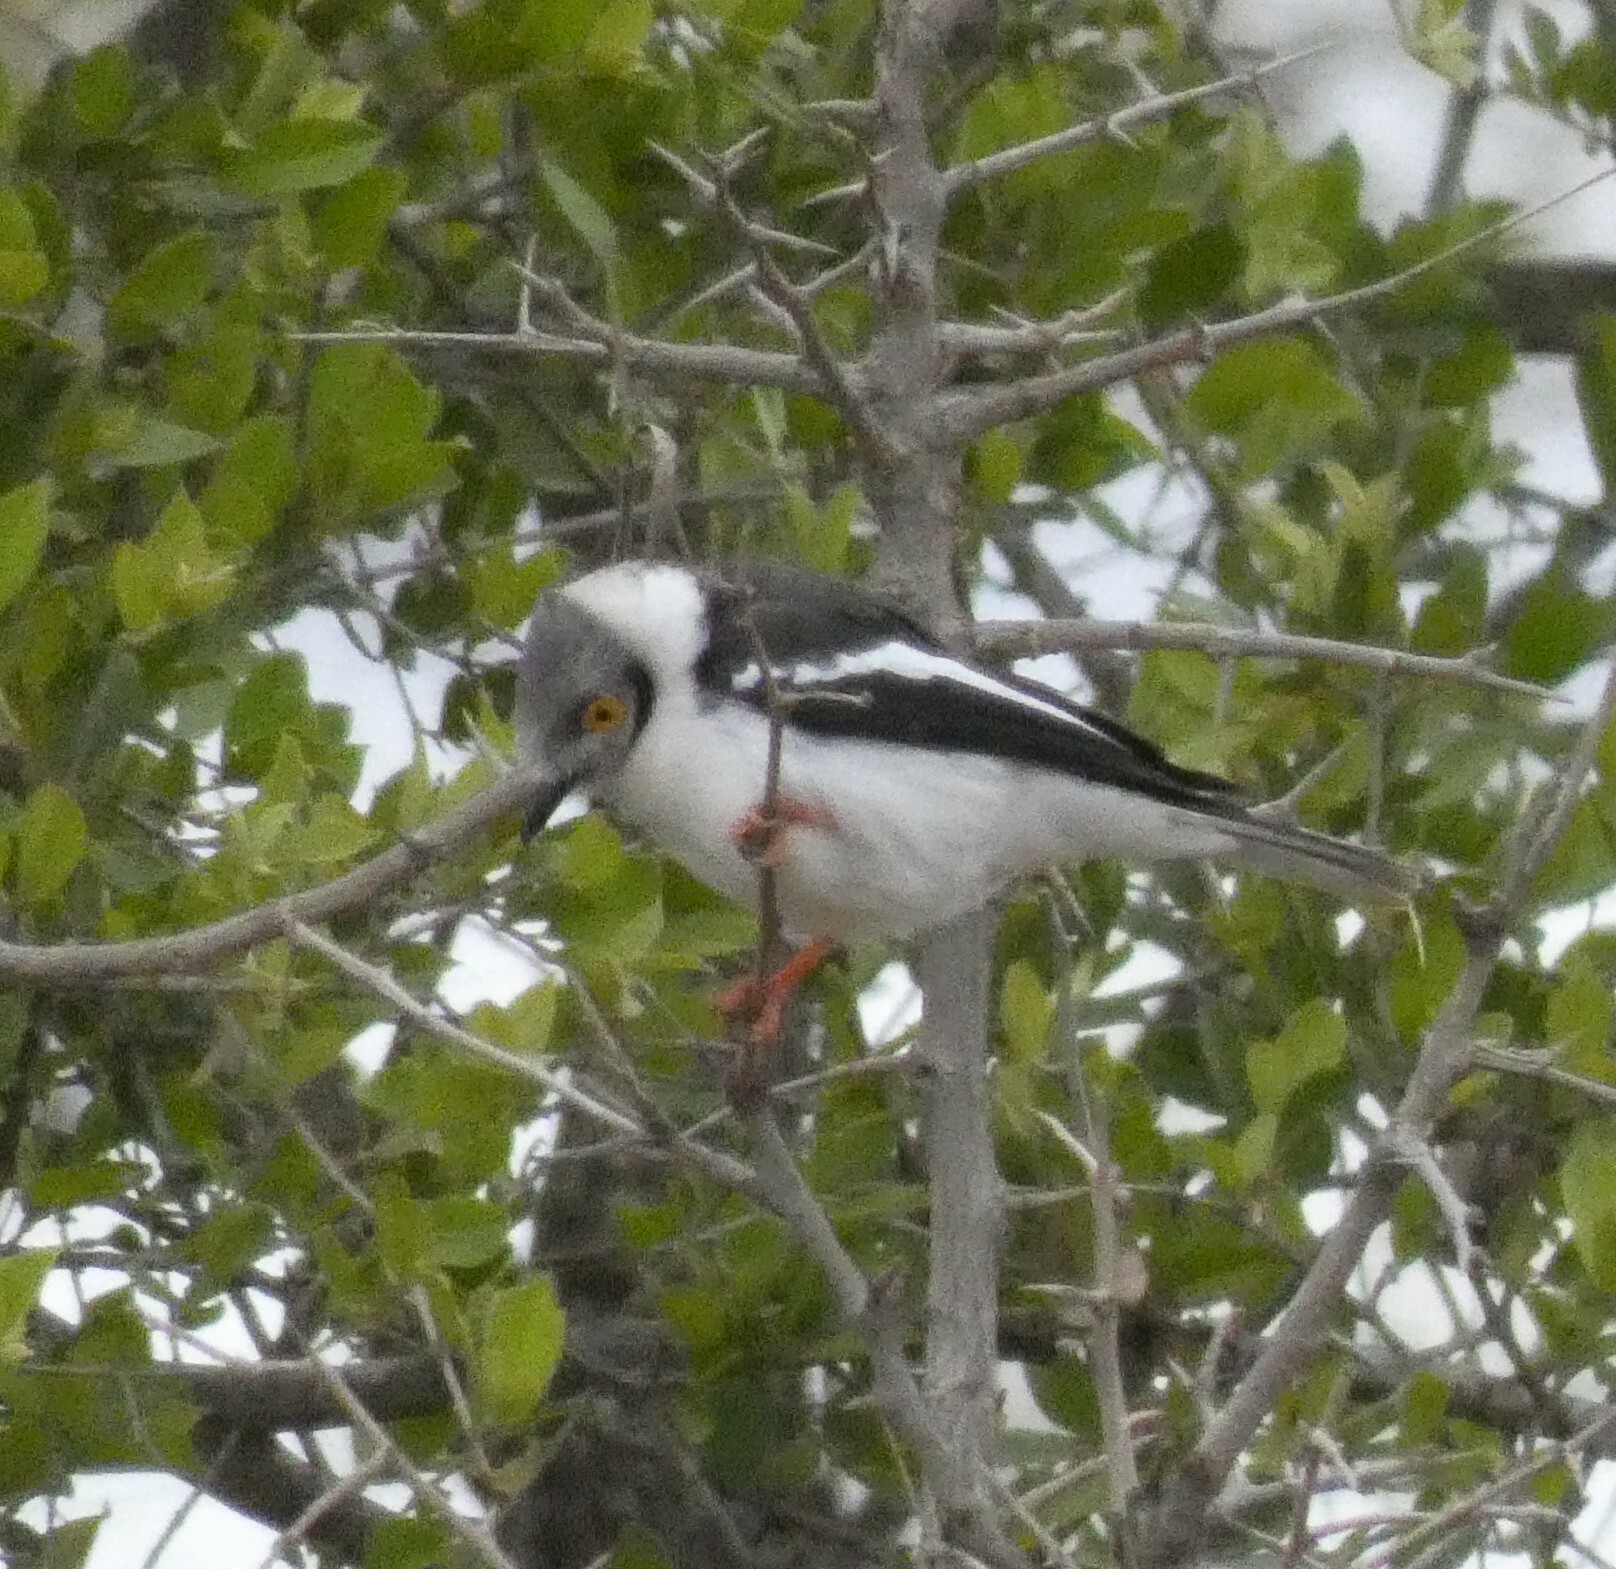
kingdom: Animalia
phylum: Chordata
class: Aves
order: Passeriformes
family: Prionopidae
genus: Prionops
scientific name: Prionops plumatus
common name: White-crested helmetshrike
